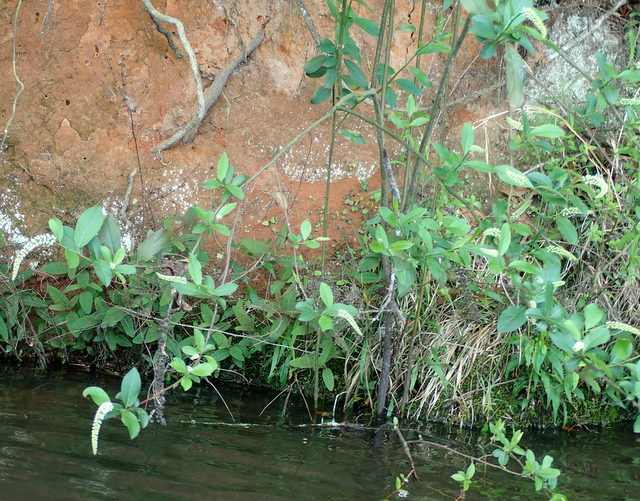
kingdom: Plantae
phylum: Tracheophyta
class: Magnoliopsida
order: Saxifragales
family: Iteaceae
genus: Itea
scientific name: Itea virginica
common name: Sweetspire
